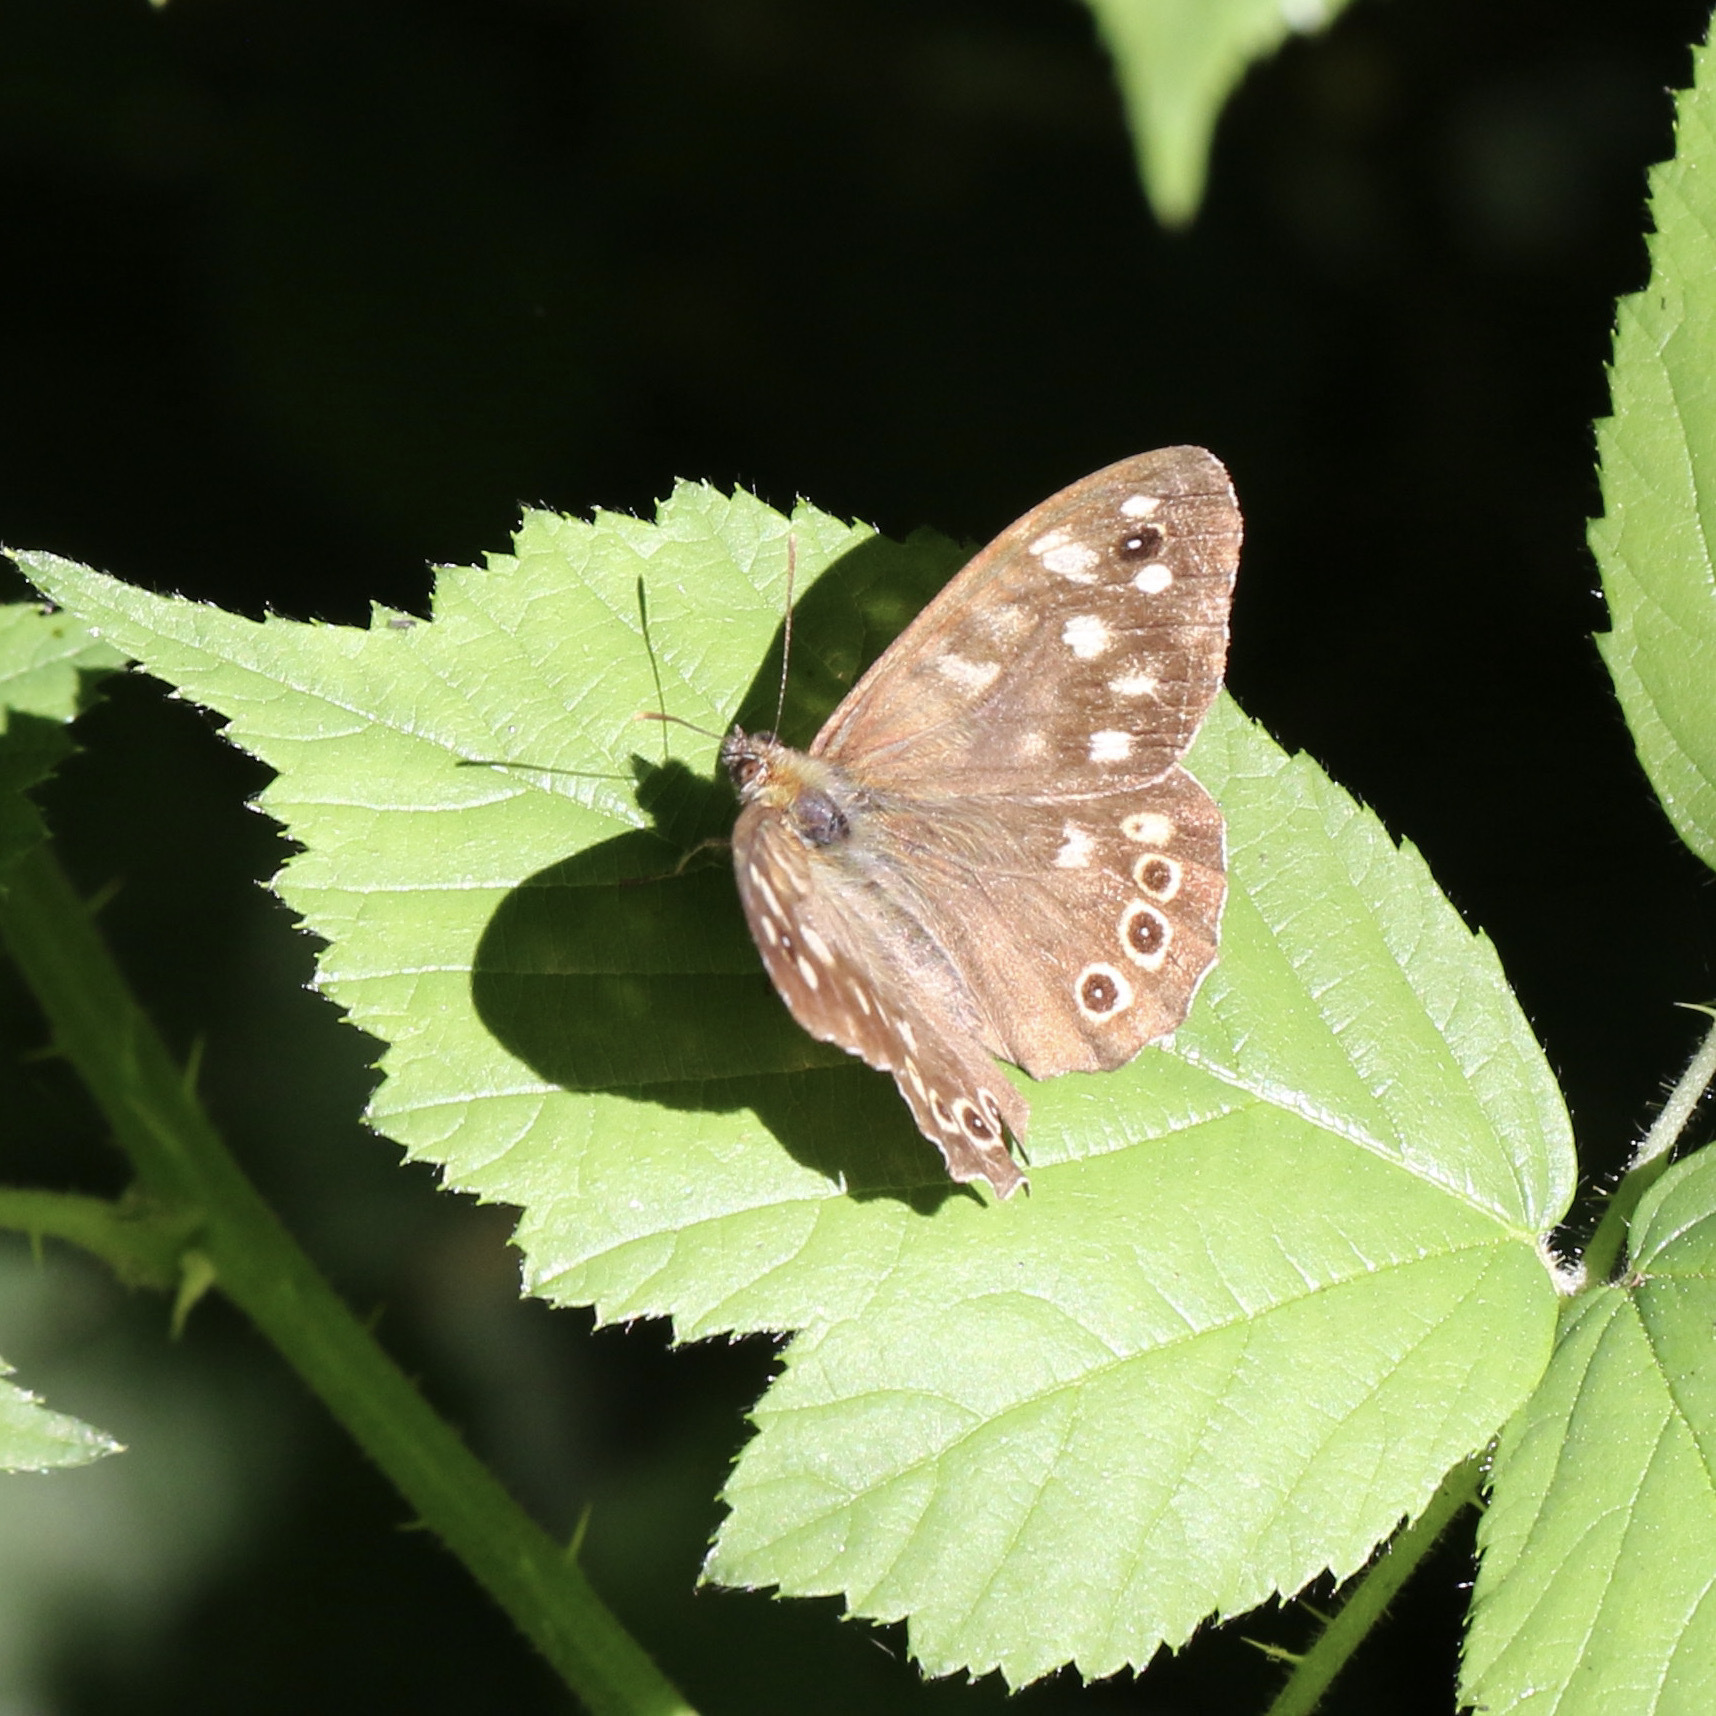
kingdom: Animalia
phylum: Arthropoda
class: Insecta
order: Lepidoptera
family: Nymphalidae
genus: Pararge
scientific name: Pararge aegeria
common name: Speckled wood
